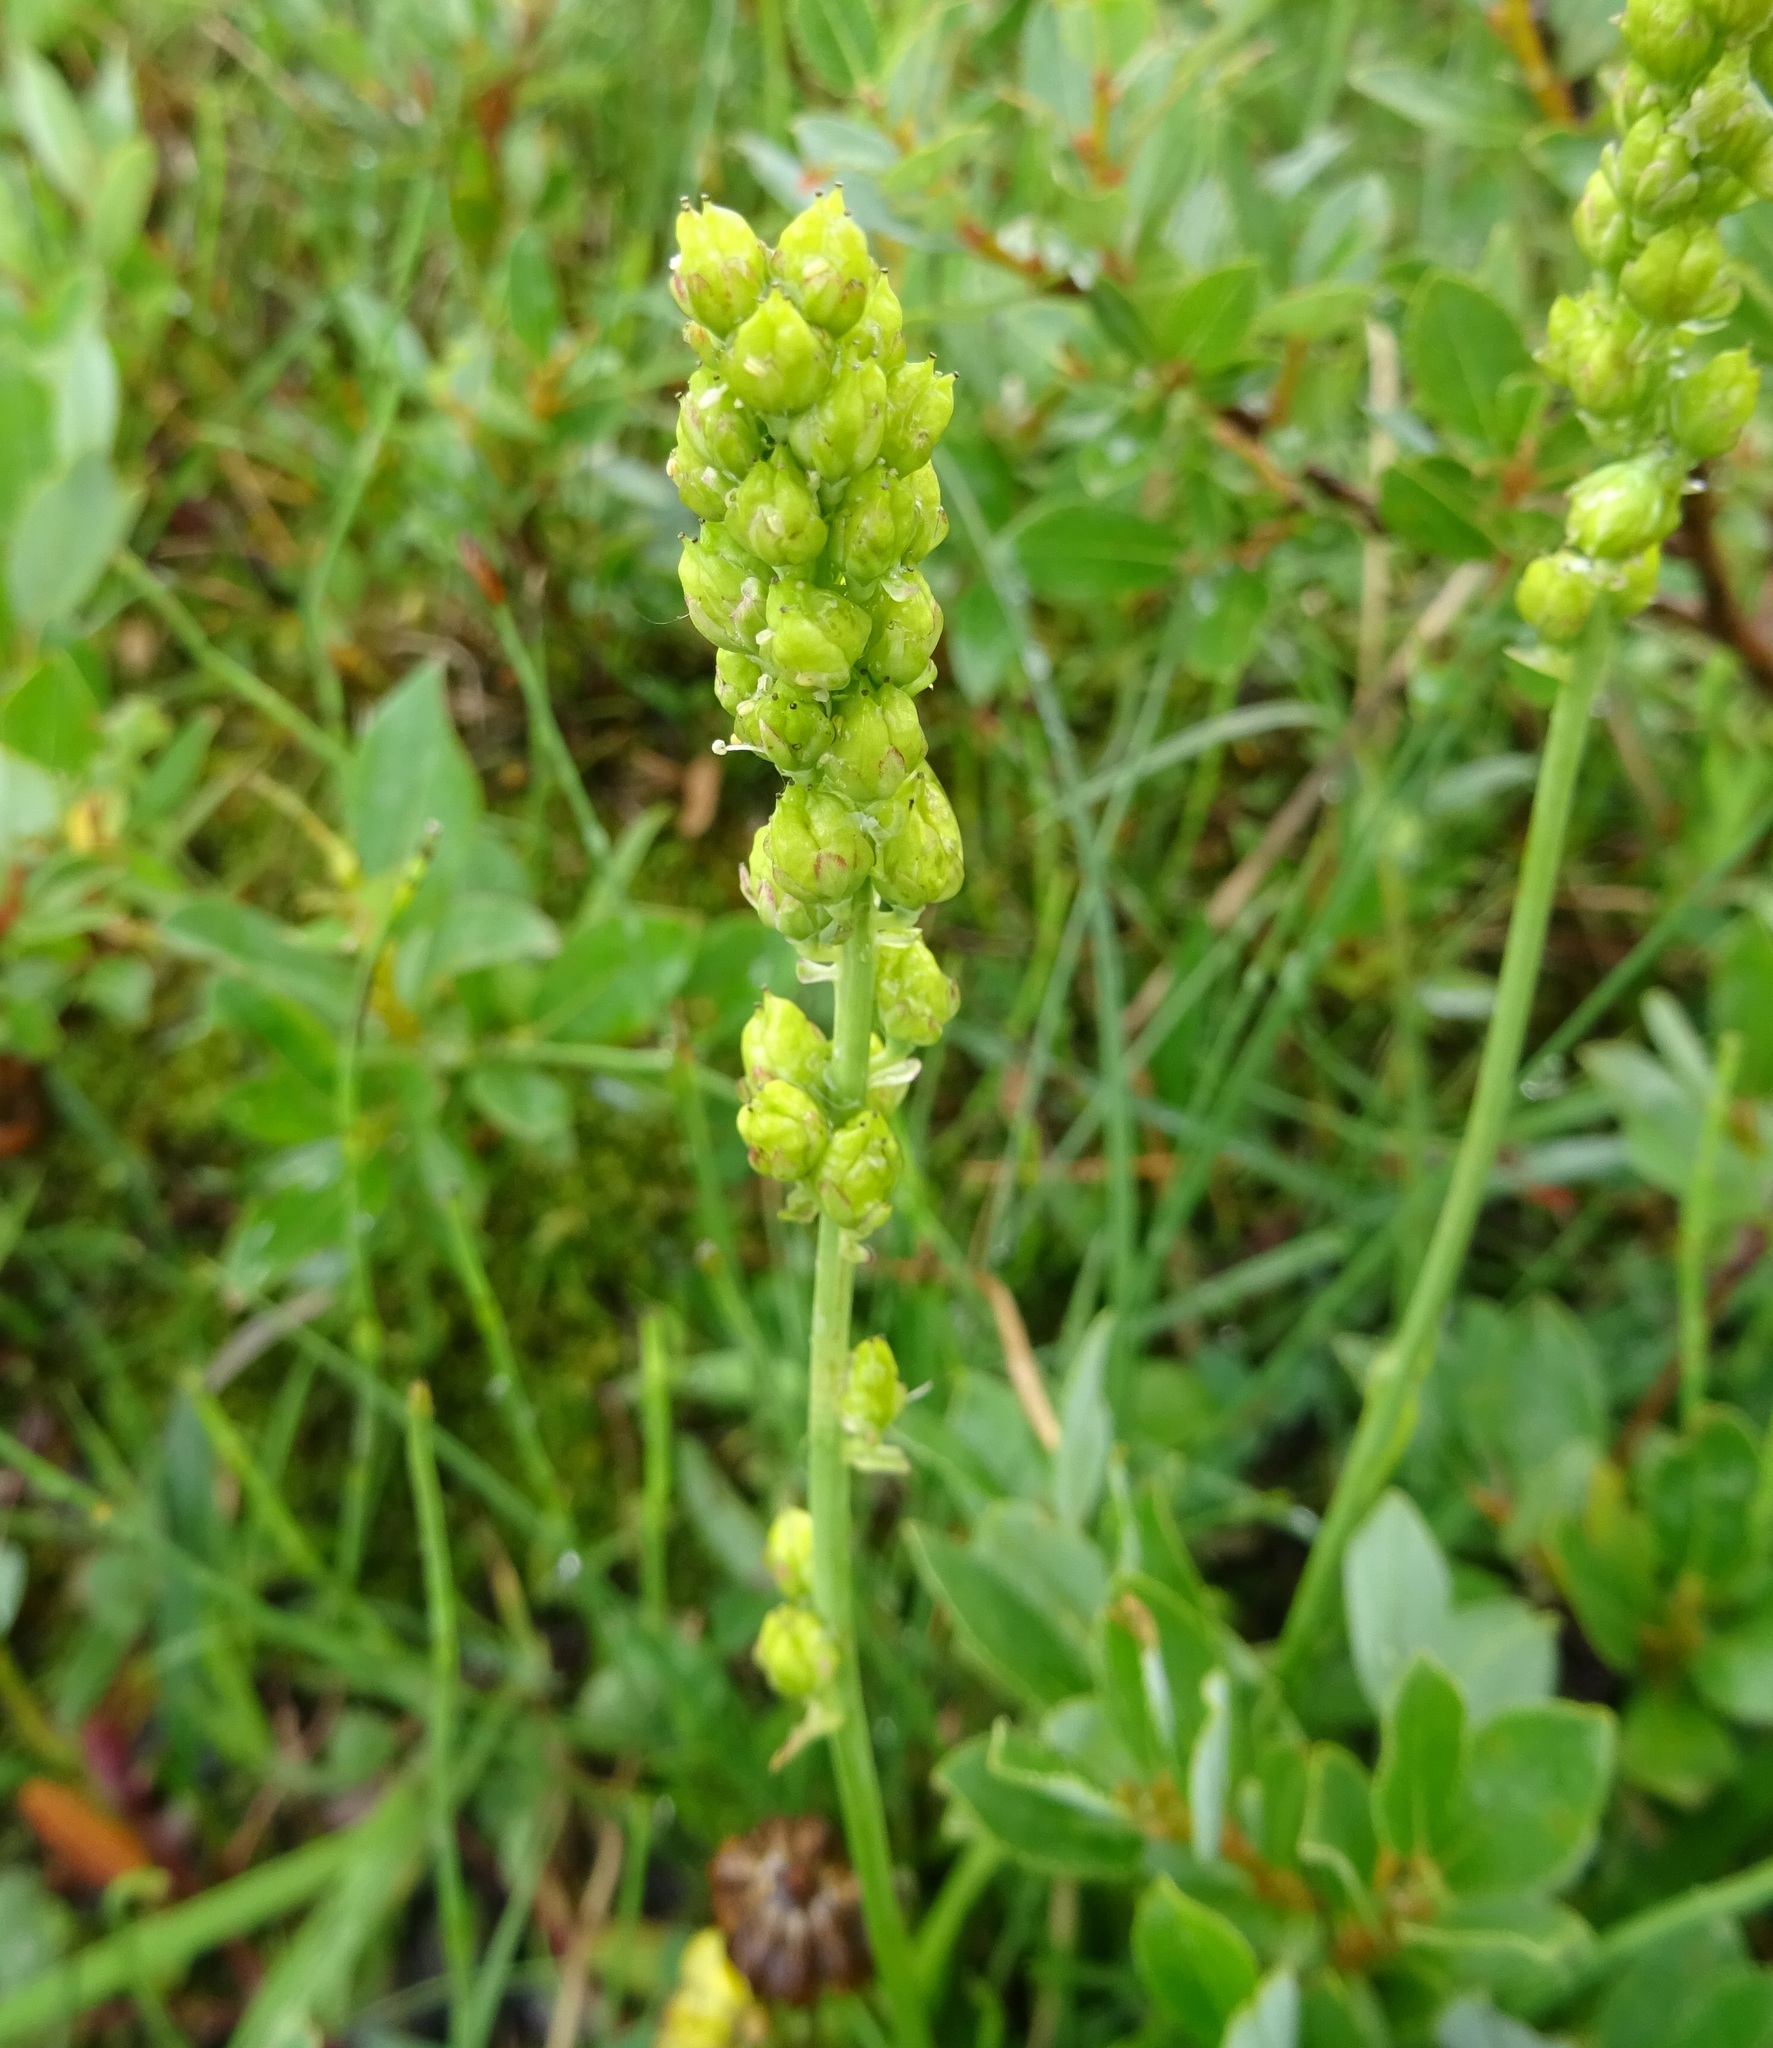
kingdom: Plantae
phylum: Tracheophyta
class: Liliopsida
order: Alismatales
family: Tofieldiaceae
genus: Tofieldia
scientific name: Tofieldia calyculata
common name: German-asphodel
